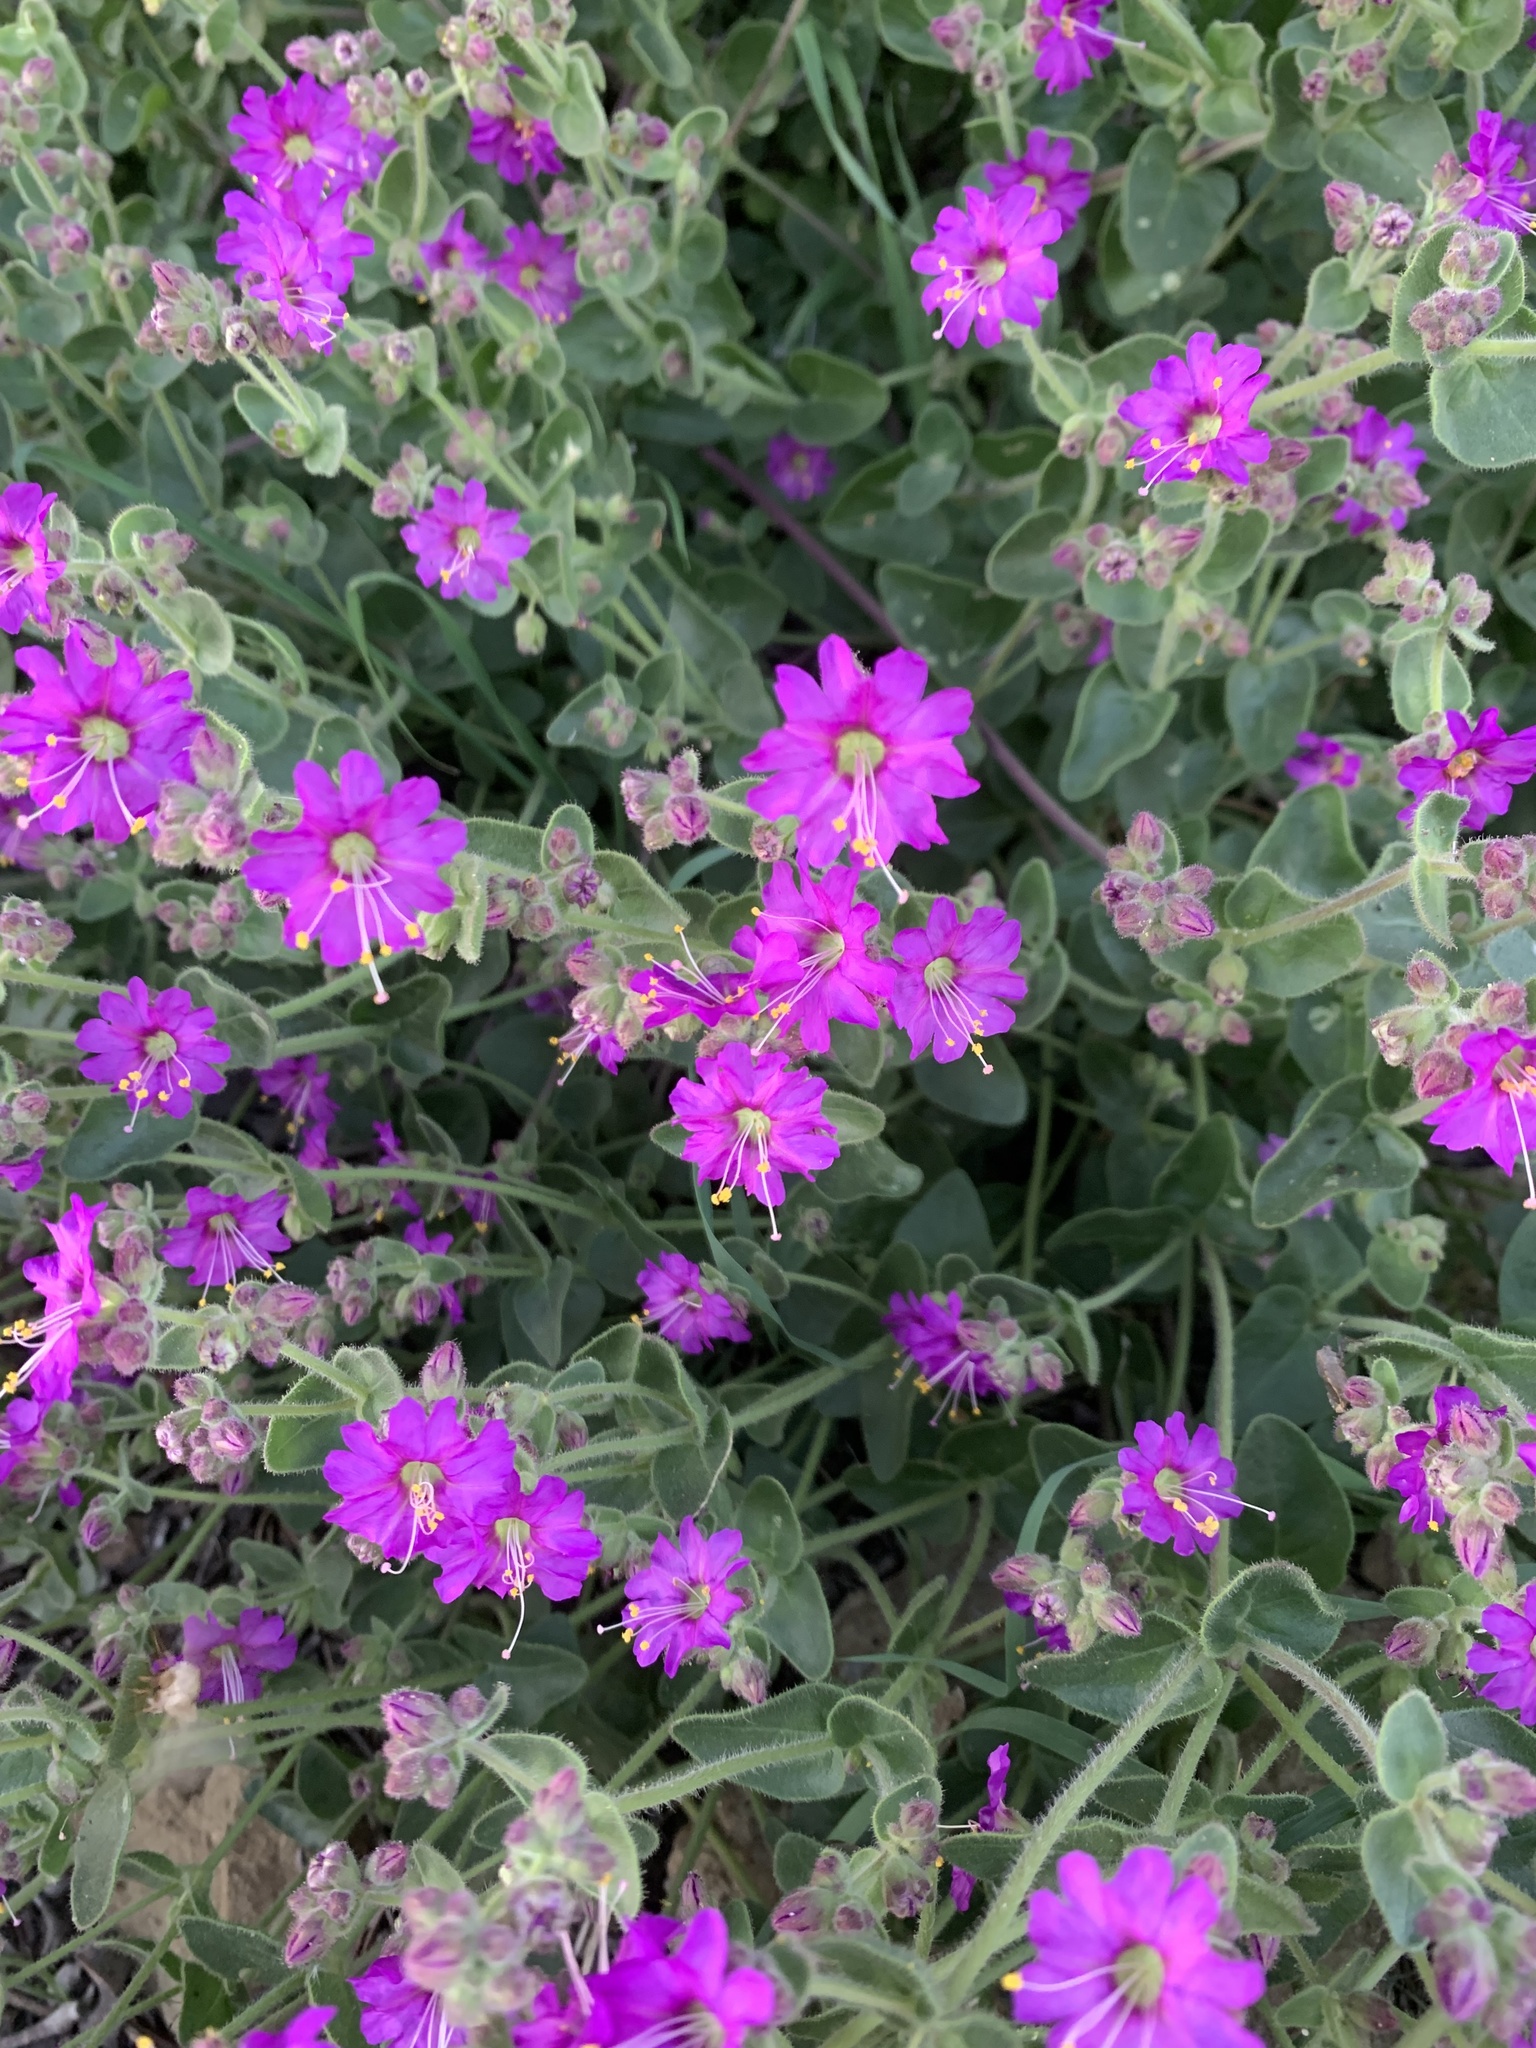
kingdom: Plantae
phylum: Tracheophyta
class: Magnoliopsida
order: Caryophyllales
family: Nyctaginaceae
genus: Mirabilis
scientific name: Mirabilis laevis
